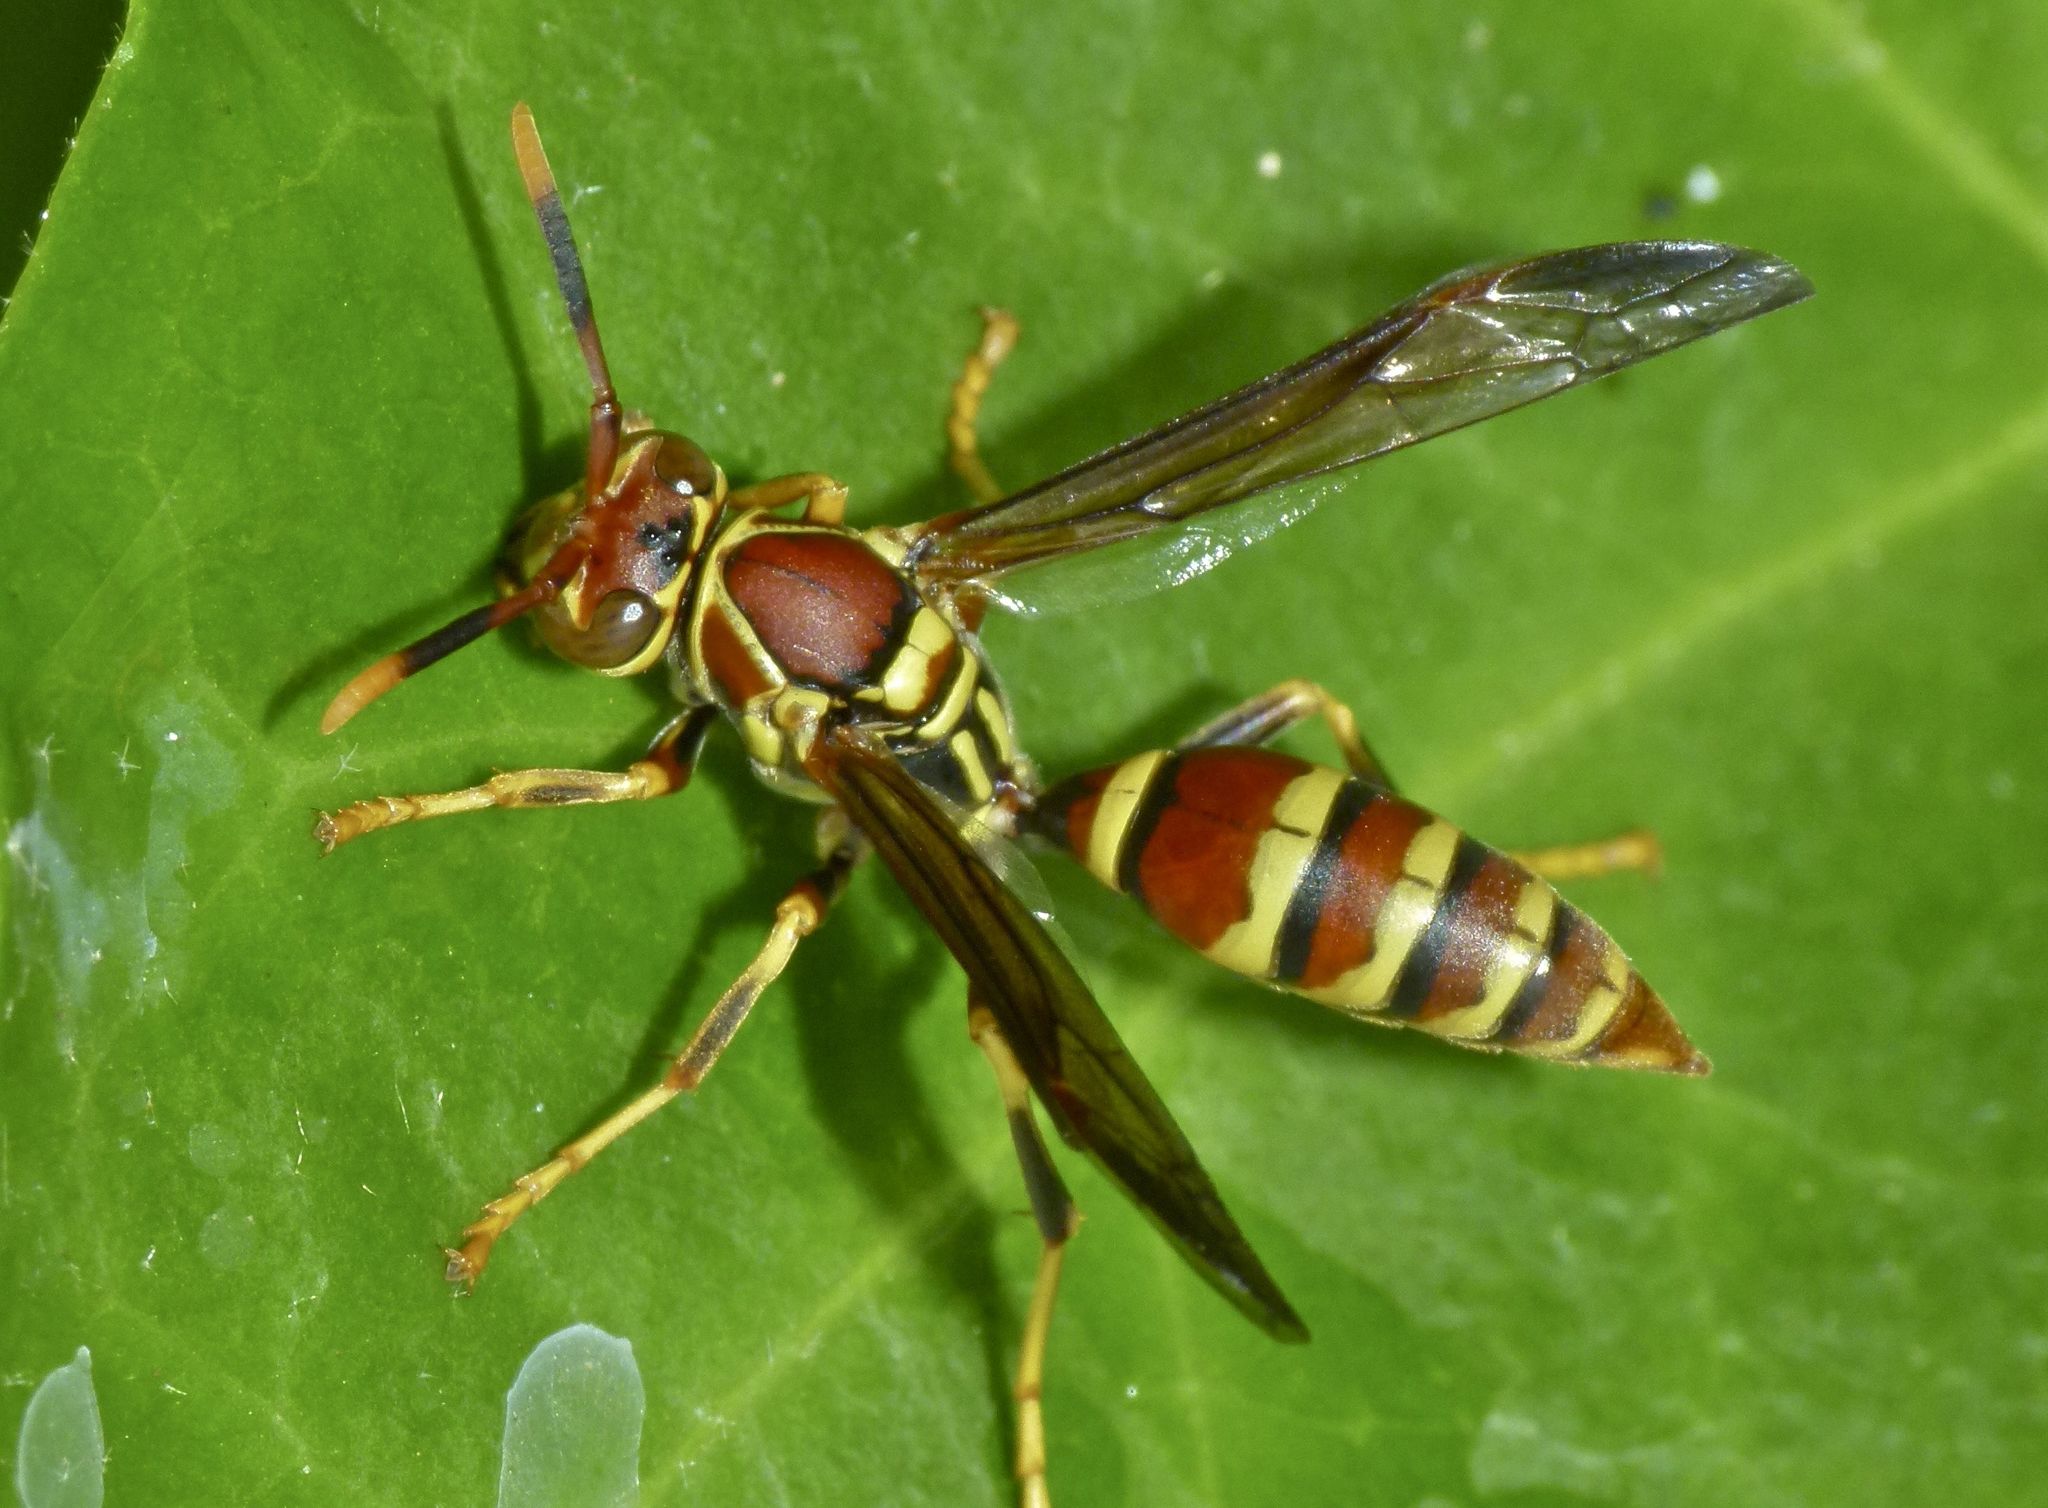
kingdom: Animalia
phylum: Arthropoda
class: Insecta
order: Hymenoptera
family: Eumenidae
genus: Polistes
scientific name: Polistes exclamans
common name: Paper wasp
